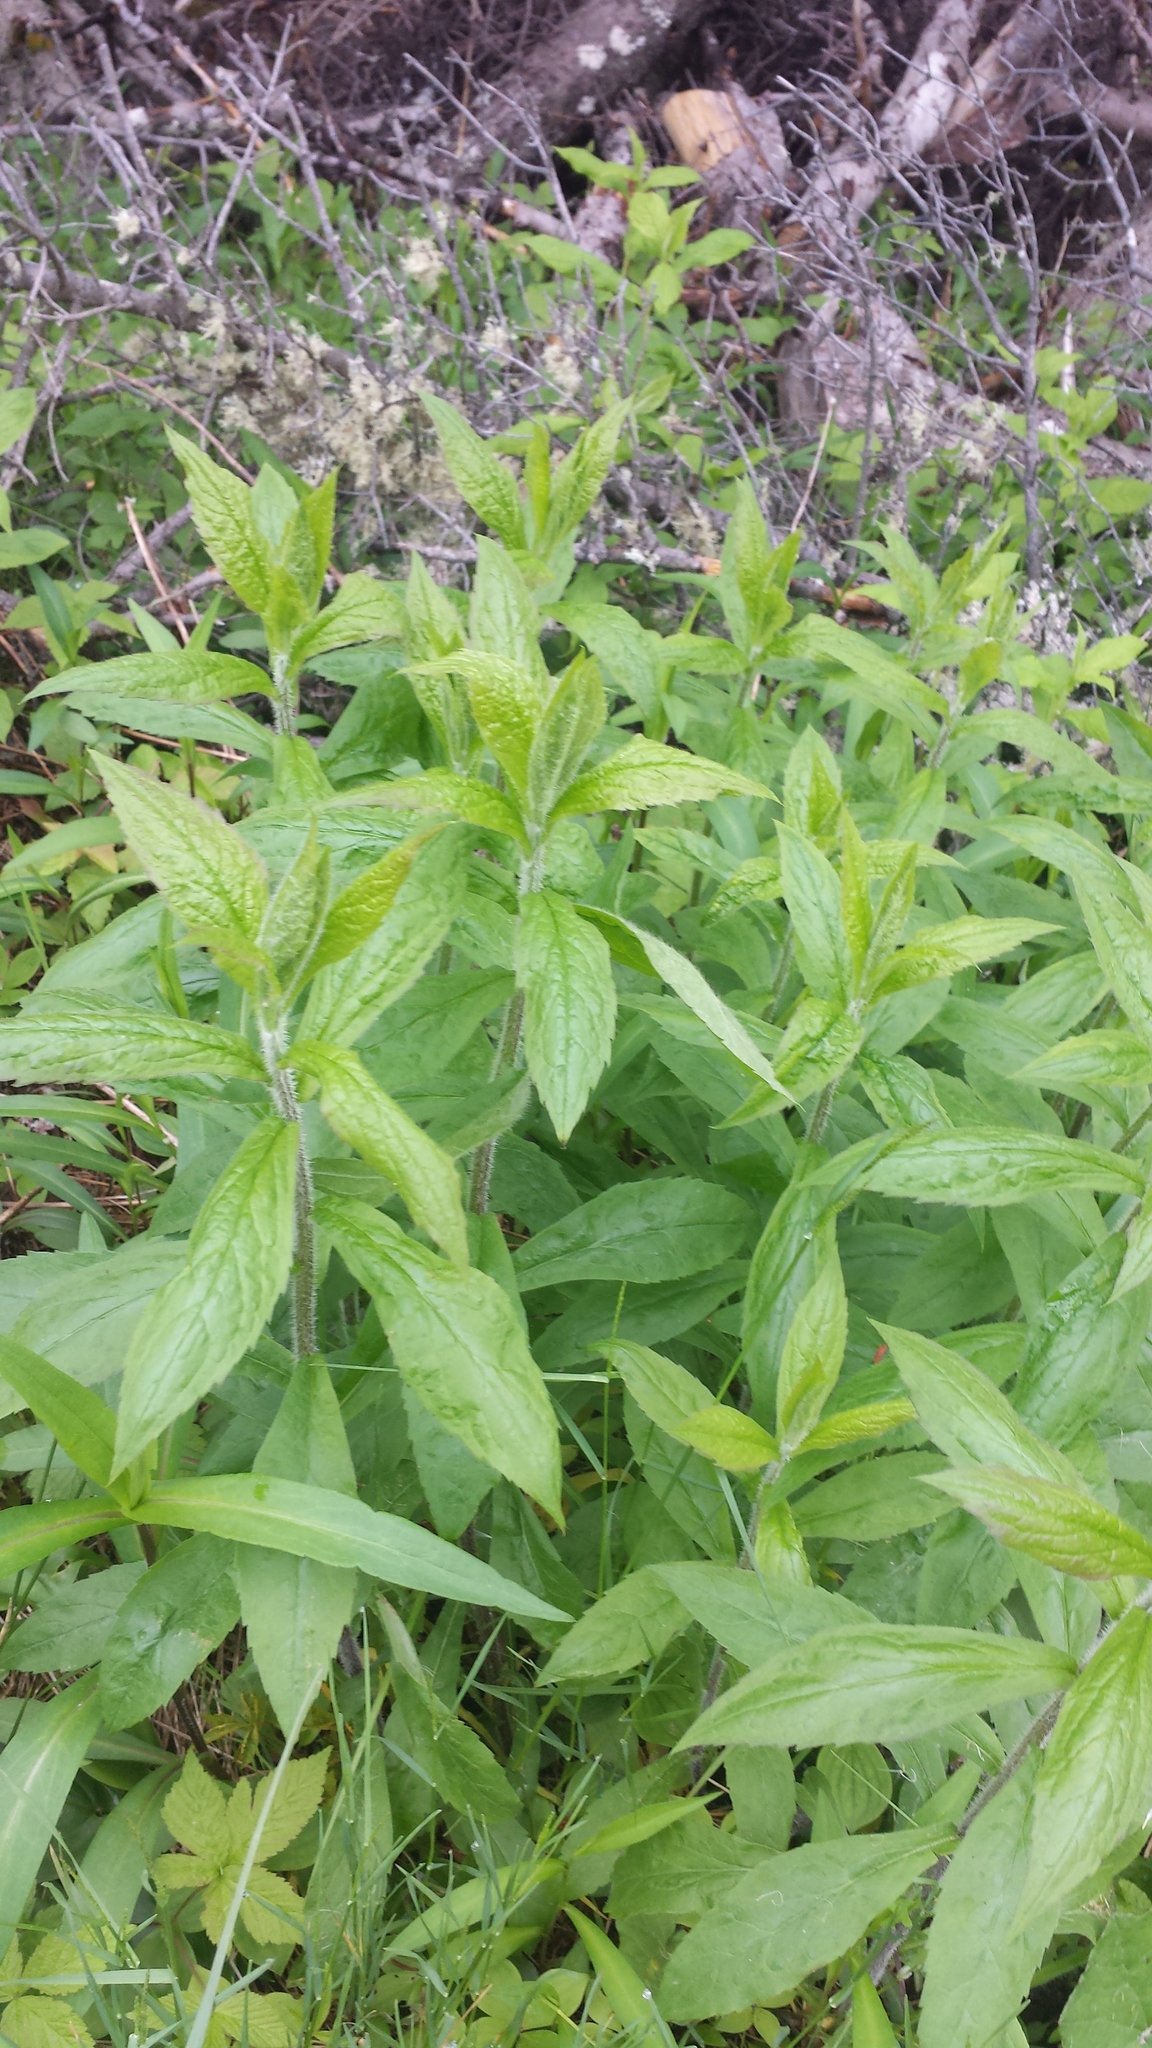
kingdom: Plantae
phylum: Tracheophyta
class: Magnoliopsida
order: Asterales
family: Asteraceae
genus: Solidago
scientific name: Solidago rugosa
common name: Rough-stemmed goldenrod
